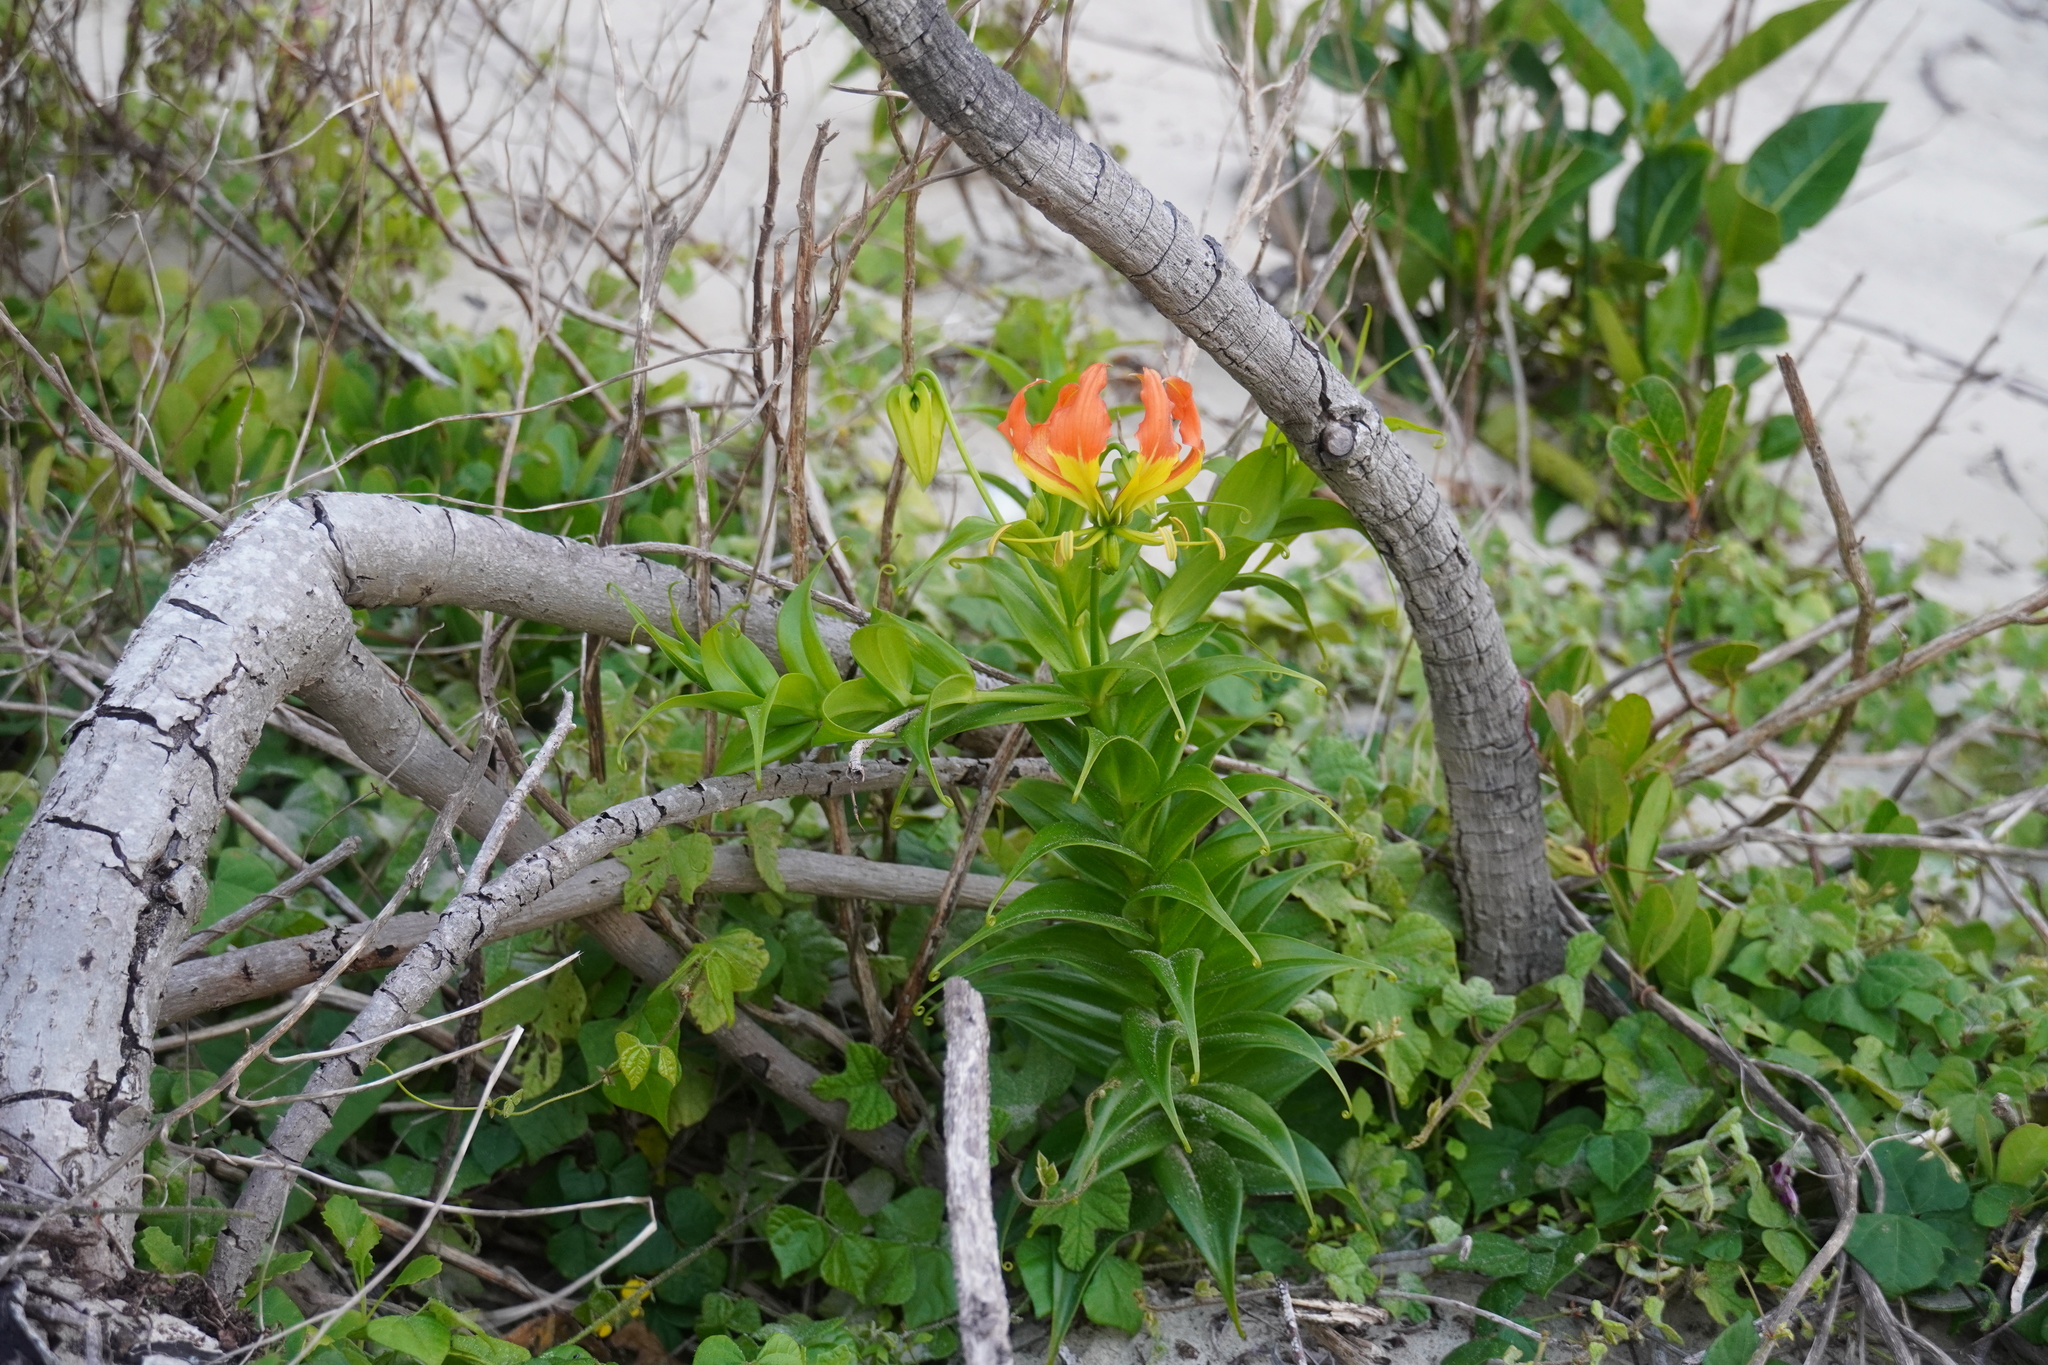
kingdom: Plantae
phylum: Tracheophyta
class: Liliopsida
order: Liliales
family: Colchicaceae
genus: Gloriosa
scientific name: Gloriosa superba
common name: Flame lily
